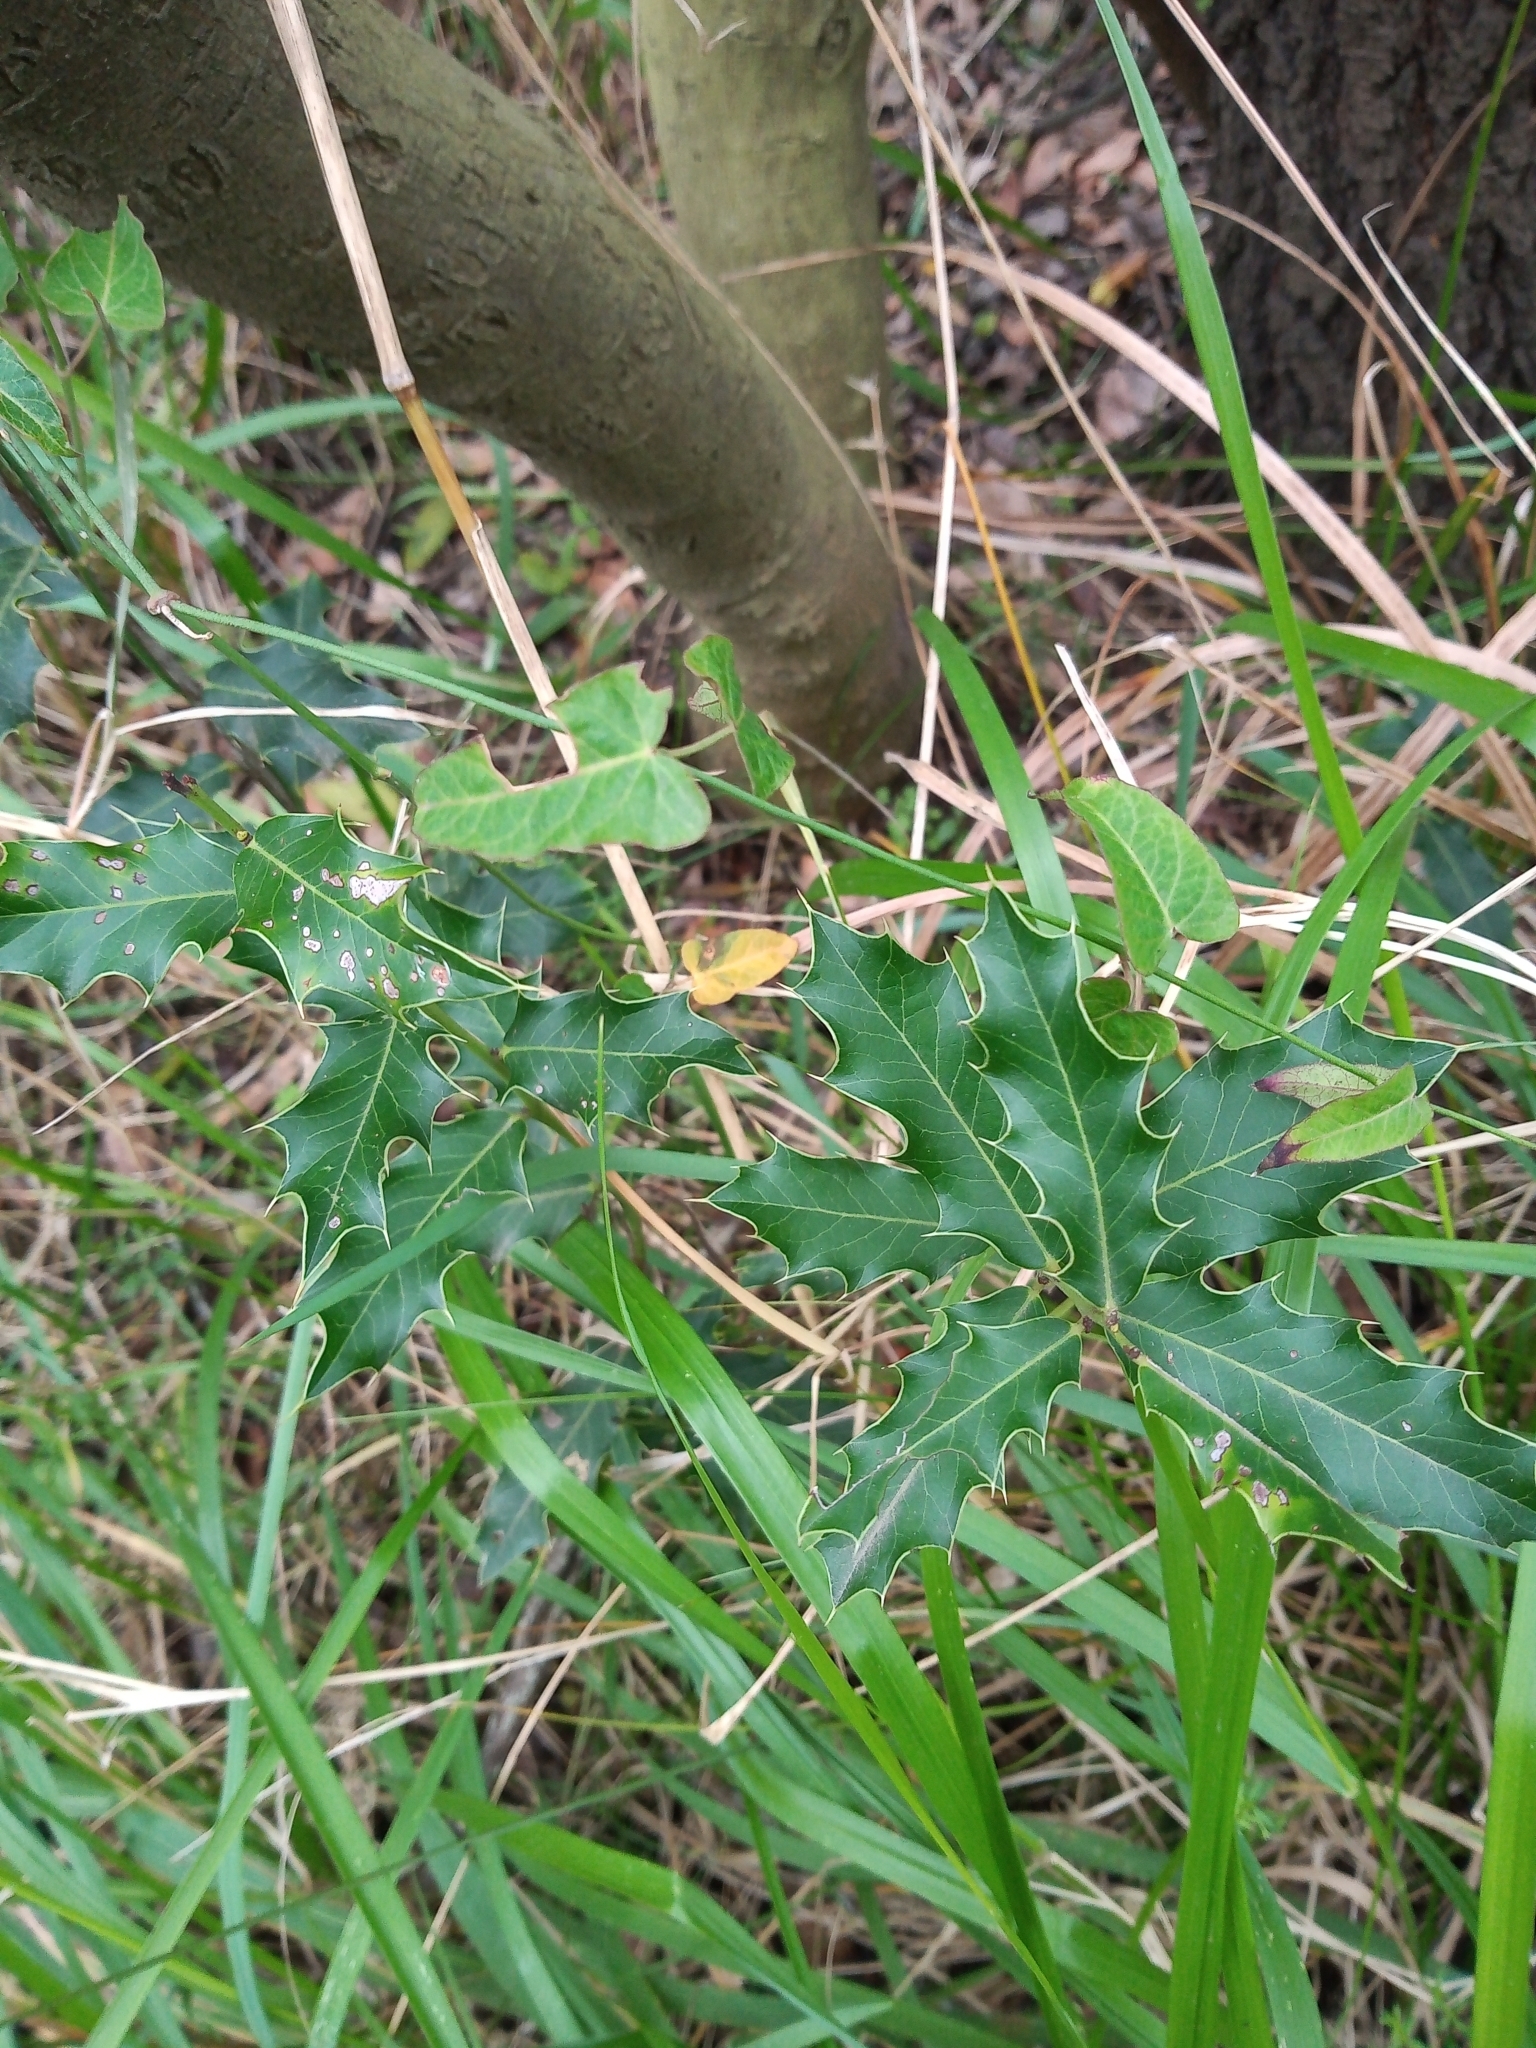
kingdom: Plantae
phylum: Tracheophyta
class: Magnoliopsida
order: Celastrales
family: Celastraceae
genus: Monteverdia
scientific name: Monteverdia
